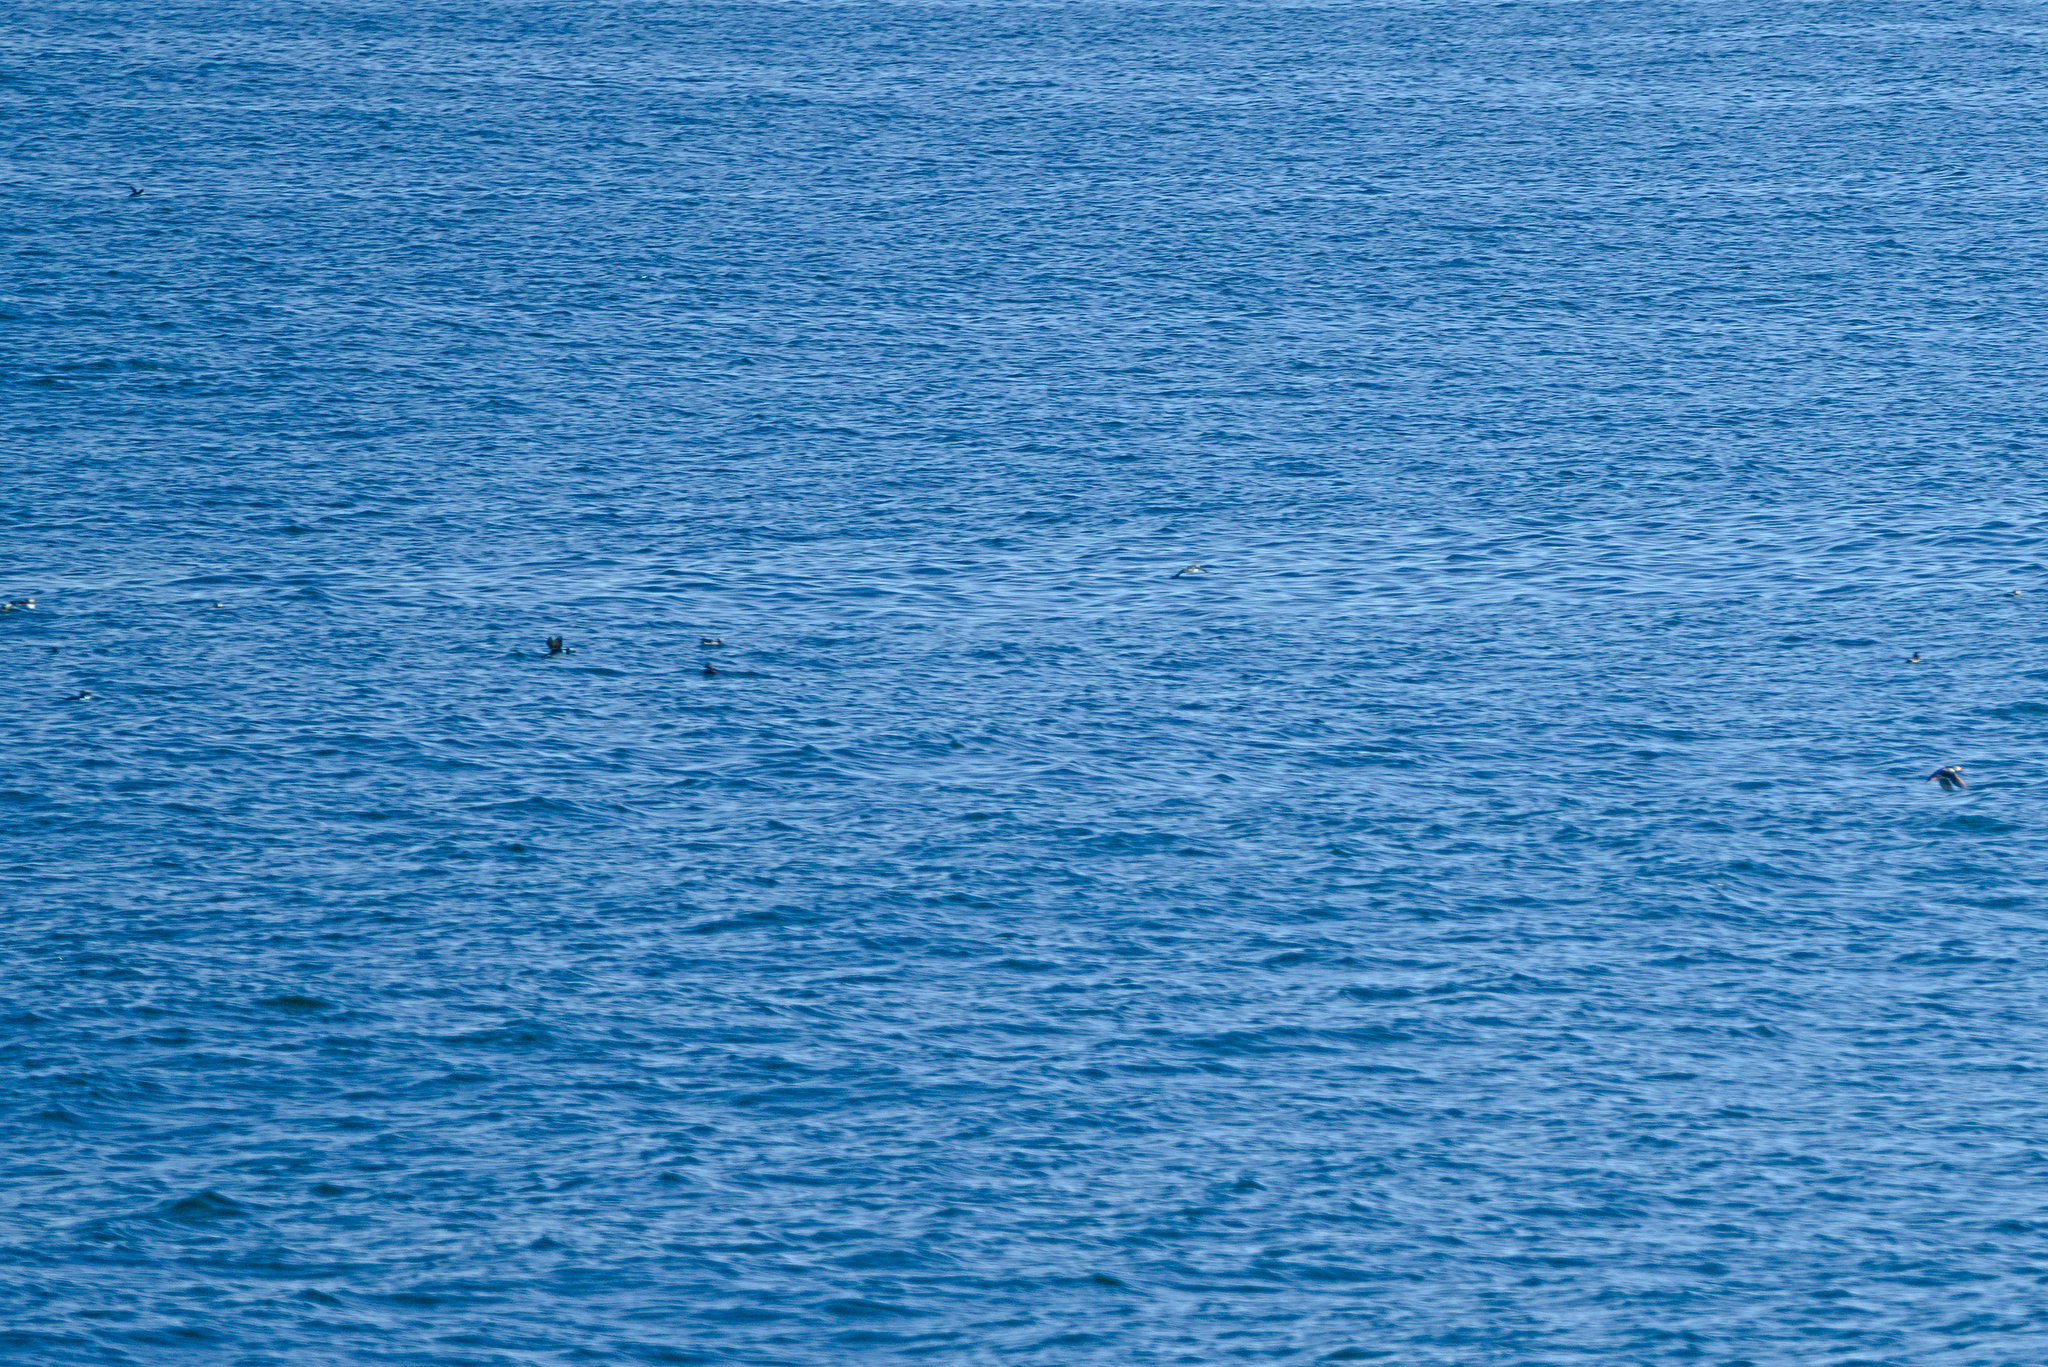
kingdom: Animalia
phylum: Chordata
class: Aves
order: Charadriiformes
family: Alcidae
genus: Fratercula
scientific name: Fratercula arctica
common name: Atlantic puffin
